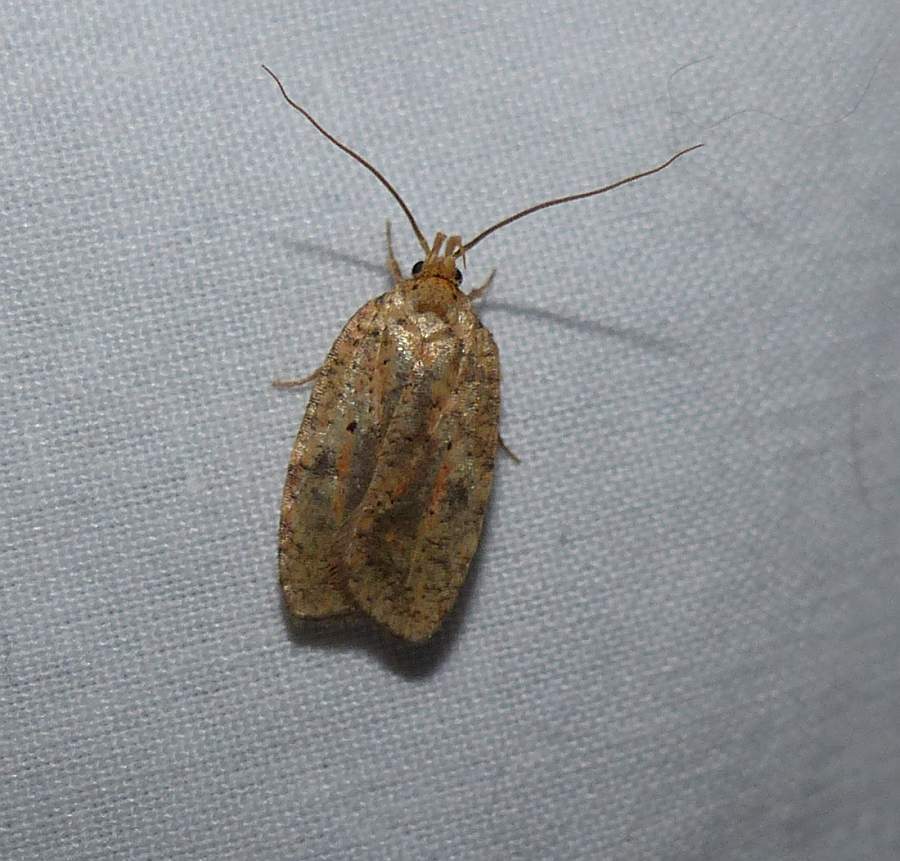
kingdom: Animalia
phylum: Arthropoda
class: Insecta
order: Lepidoptera
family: Depressariidae
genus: Agonopterix
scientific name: Agonopterix robiniella
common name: Four-dotted agonopterix moth
